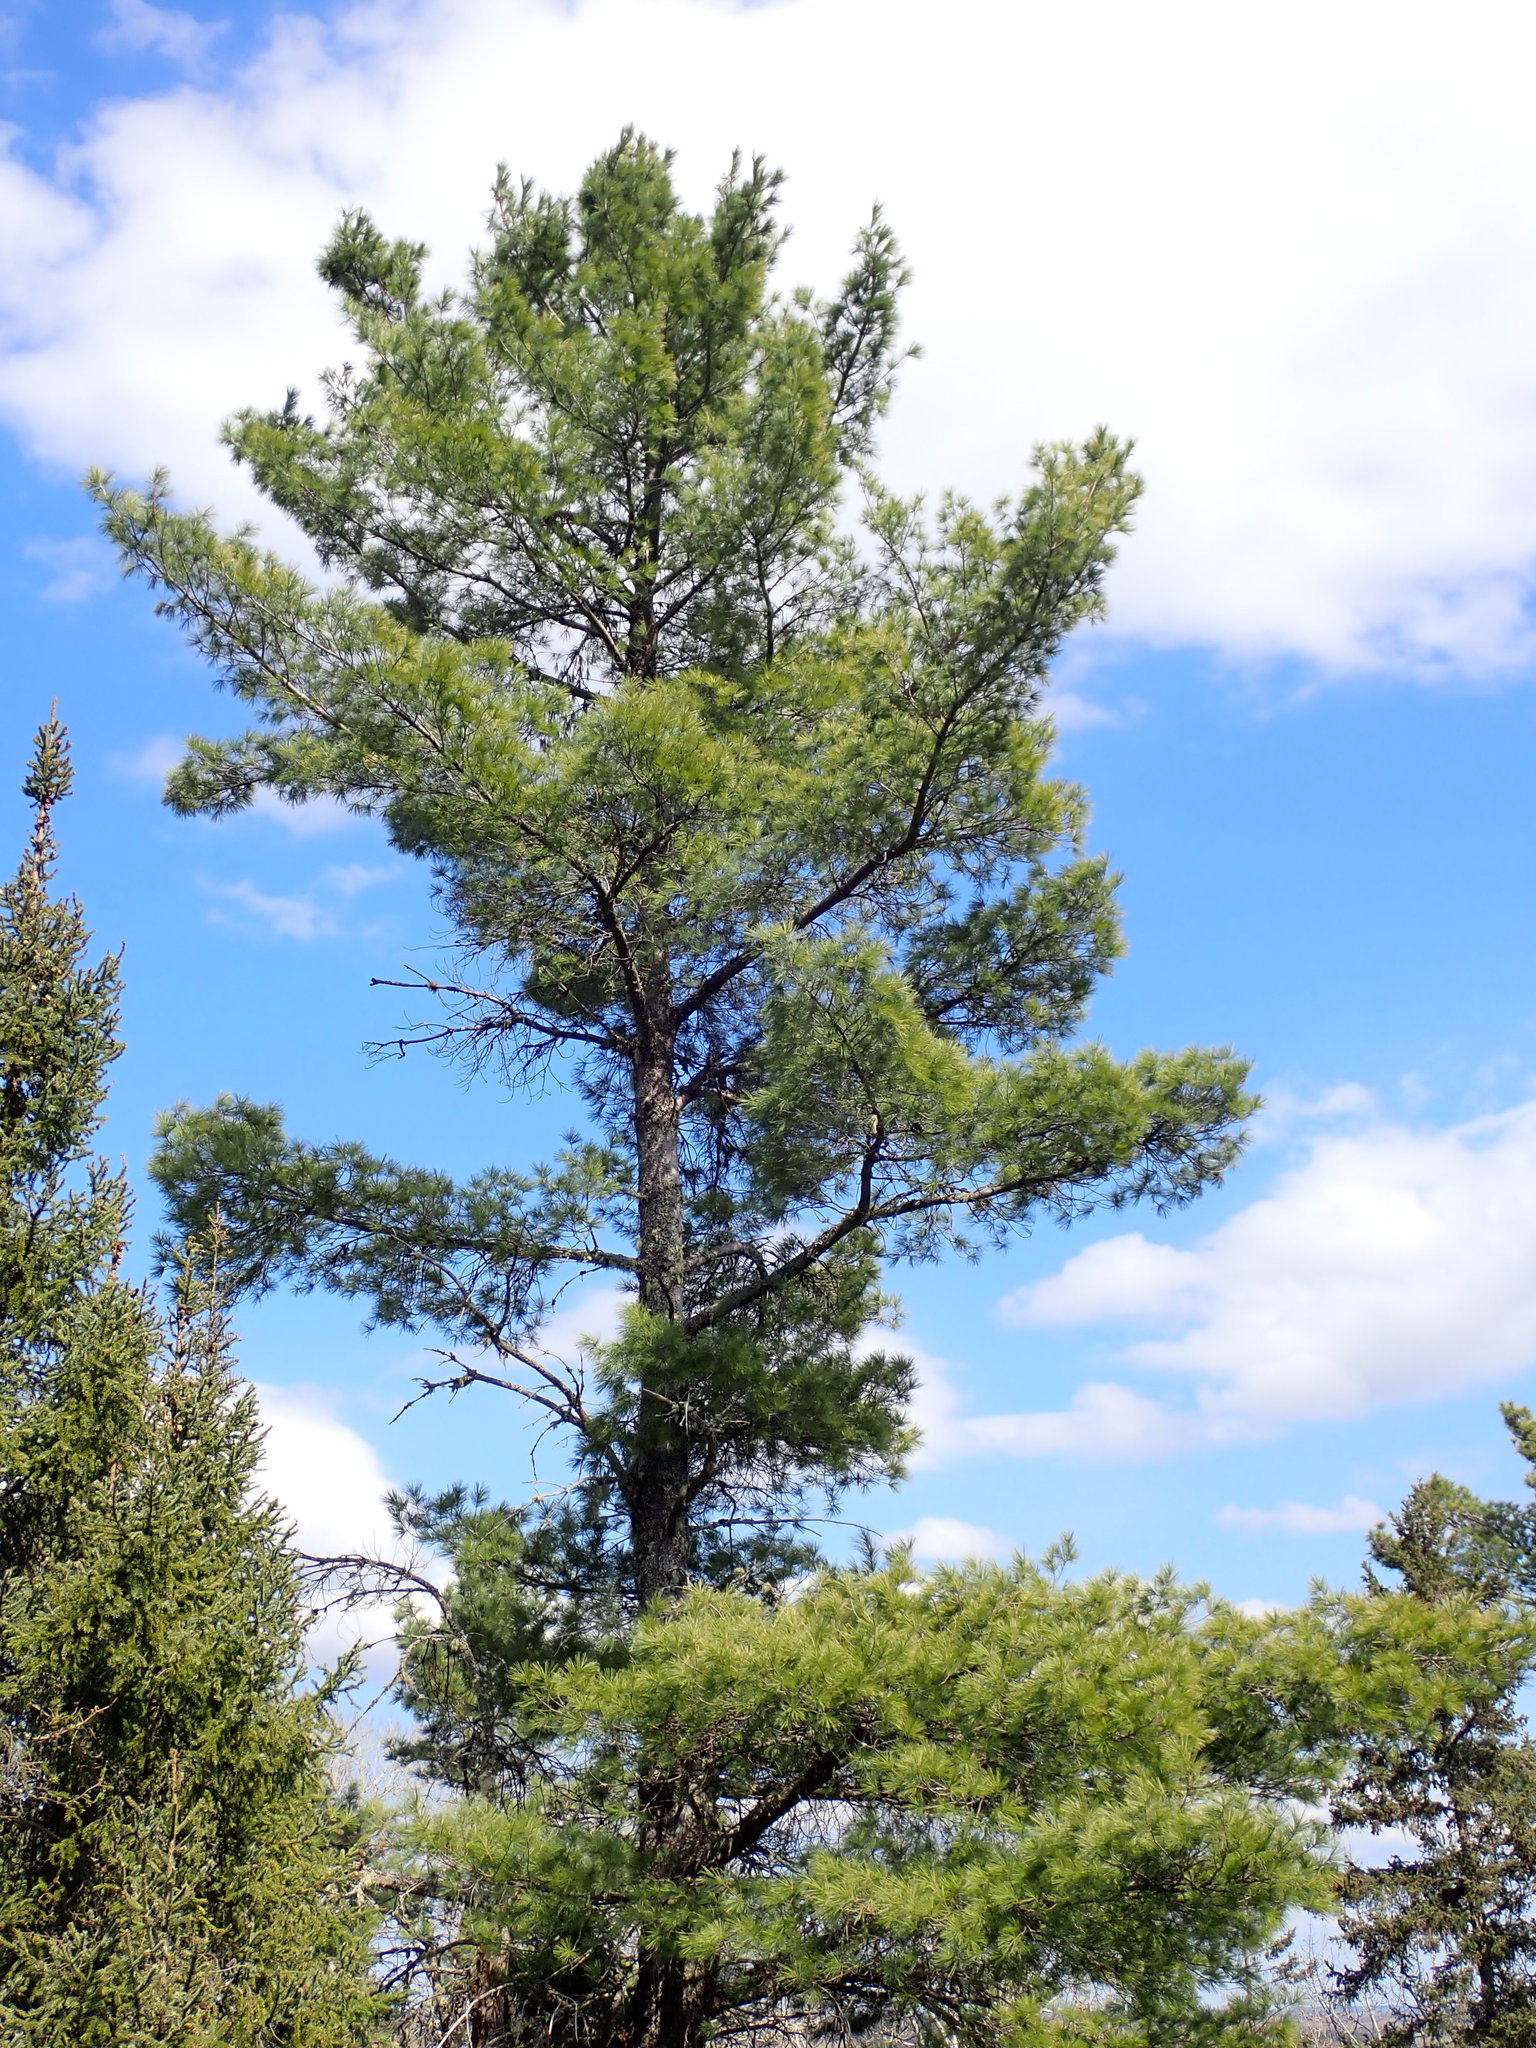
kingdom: Plantae
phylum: Tracheophyta
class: Pinopsida
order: Pinales
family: Pinaceae
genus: Pinus
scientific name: Pinus strobus
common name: Weymouth pine
